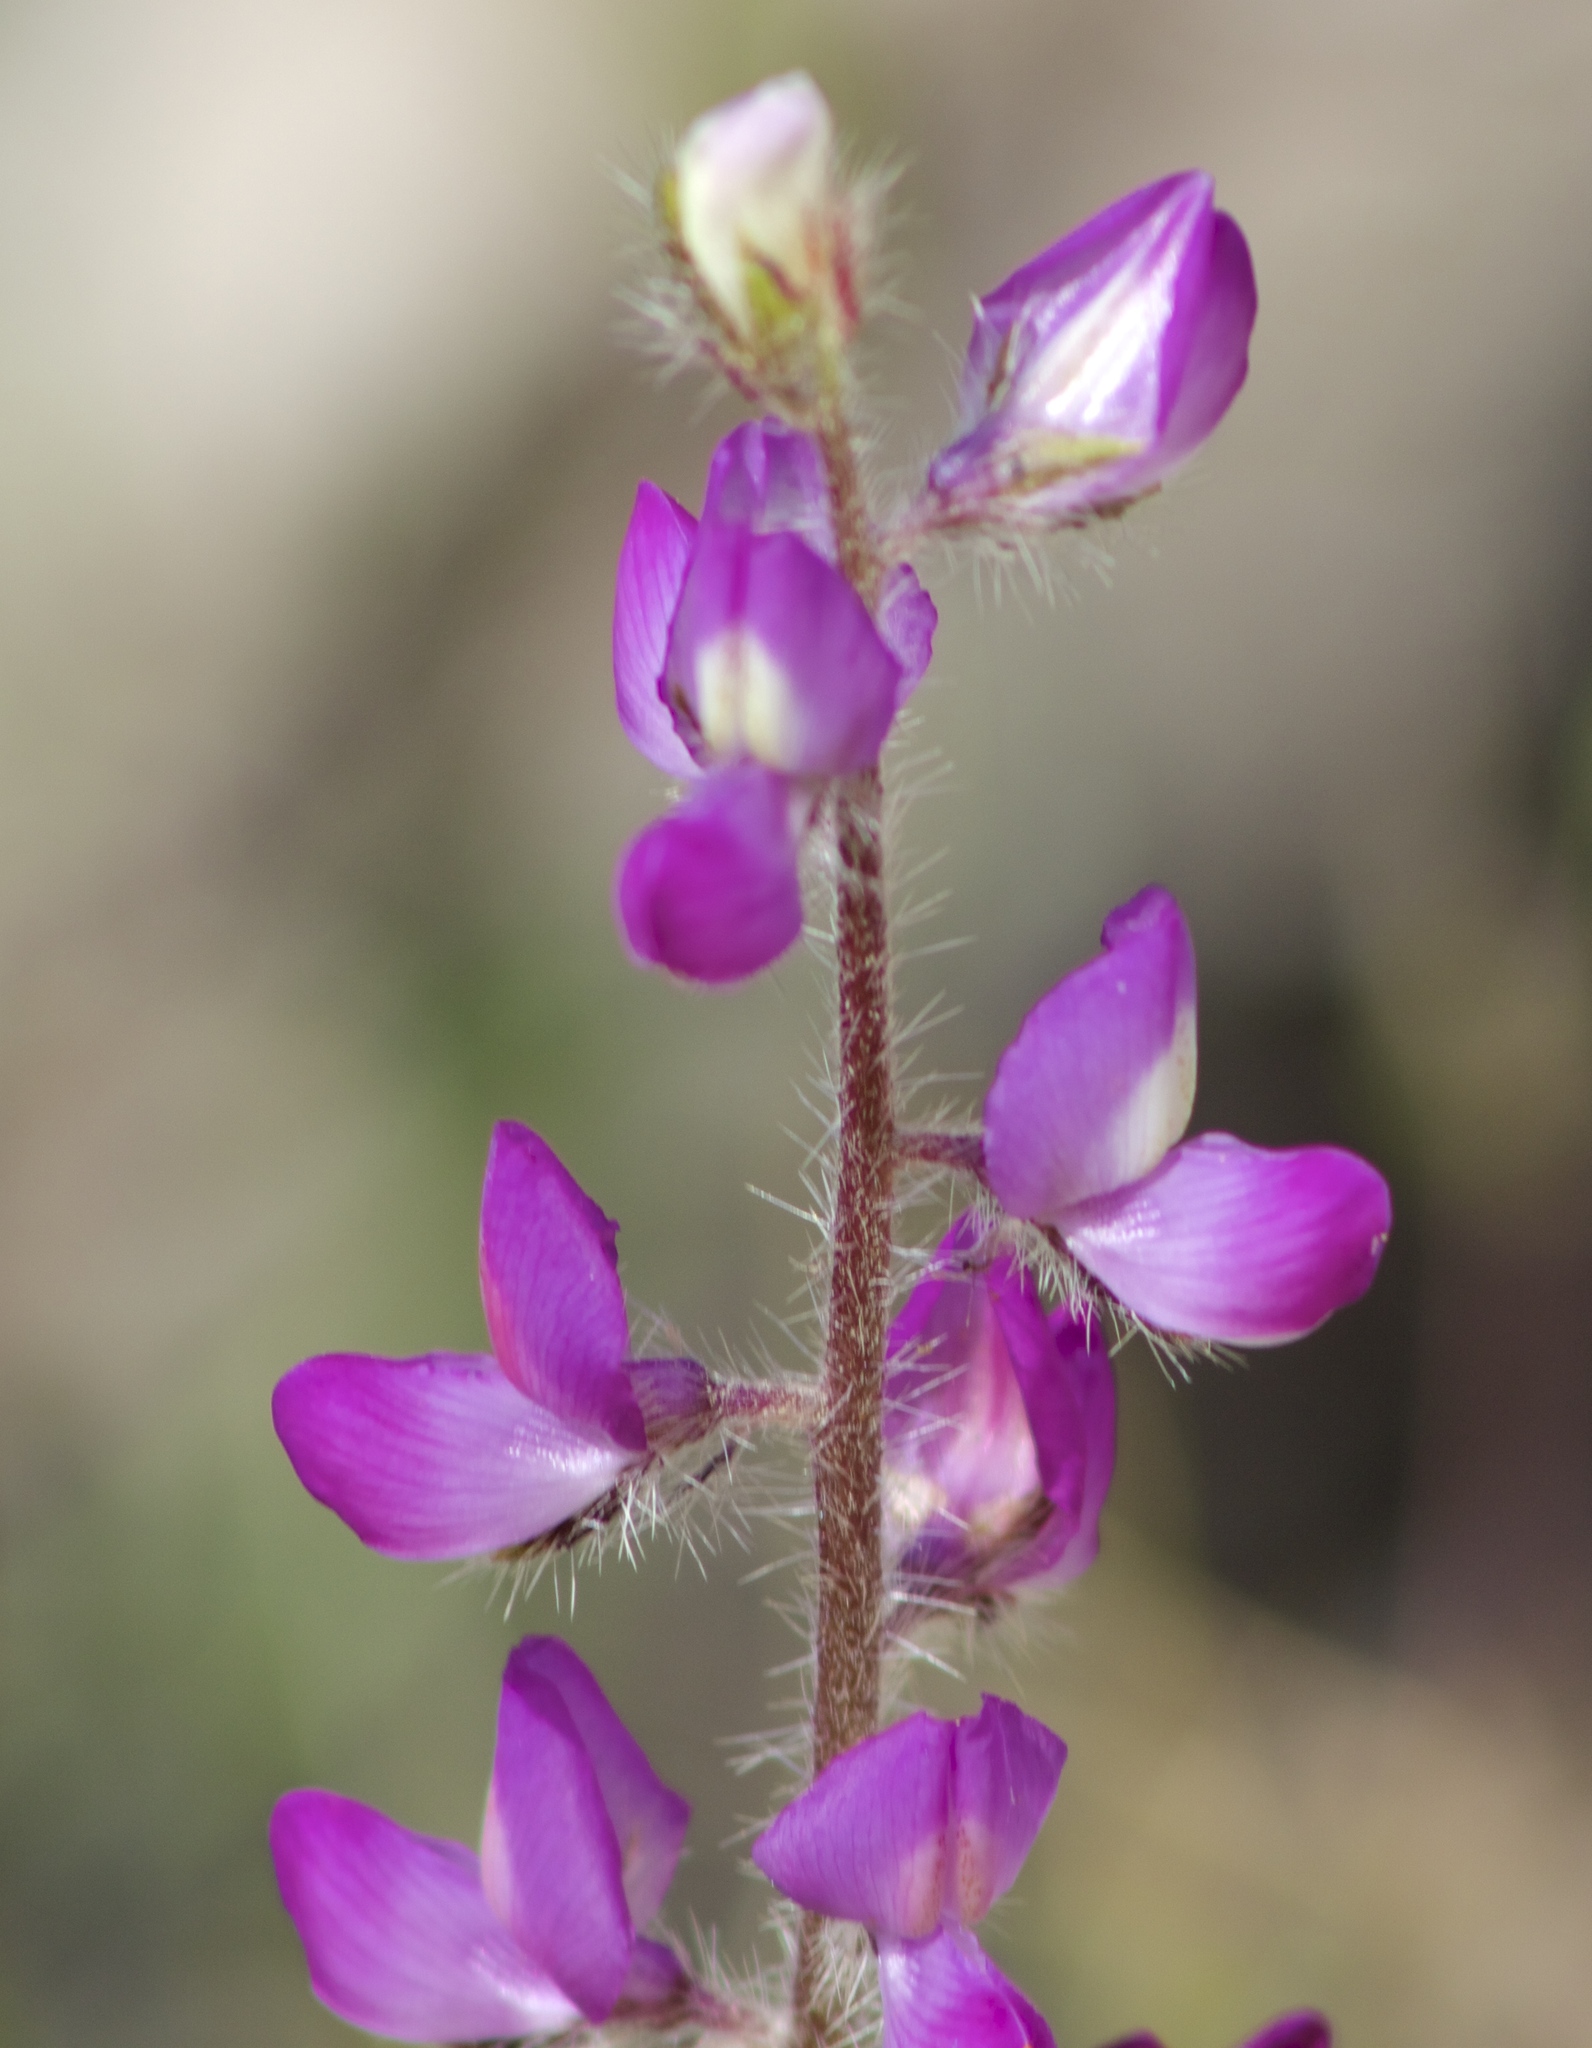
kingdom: Plantae
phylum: Tracheophyta
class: Magnoliopsida
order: Fabales
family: Fabaceae
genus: Lupinus
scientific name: Lupinus hirsutissimus
